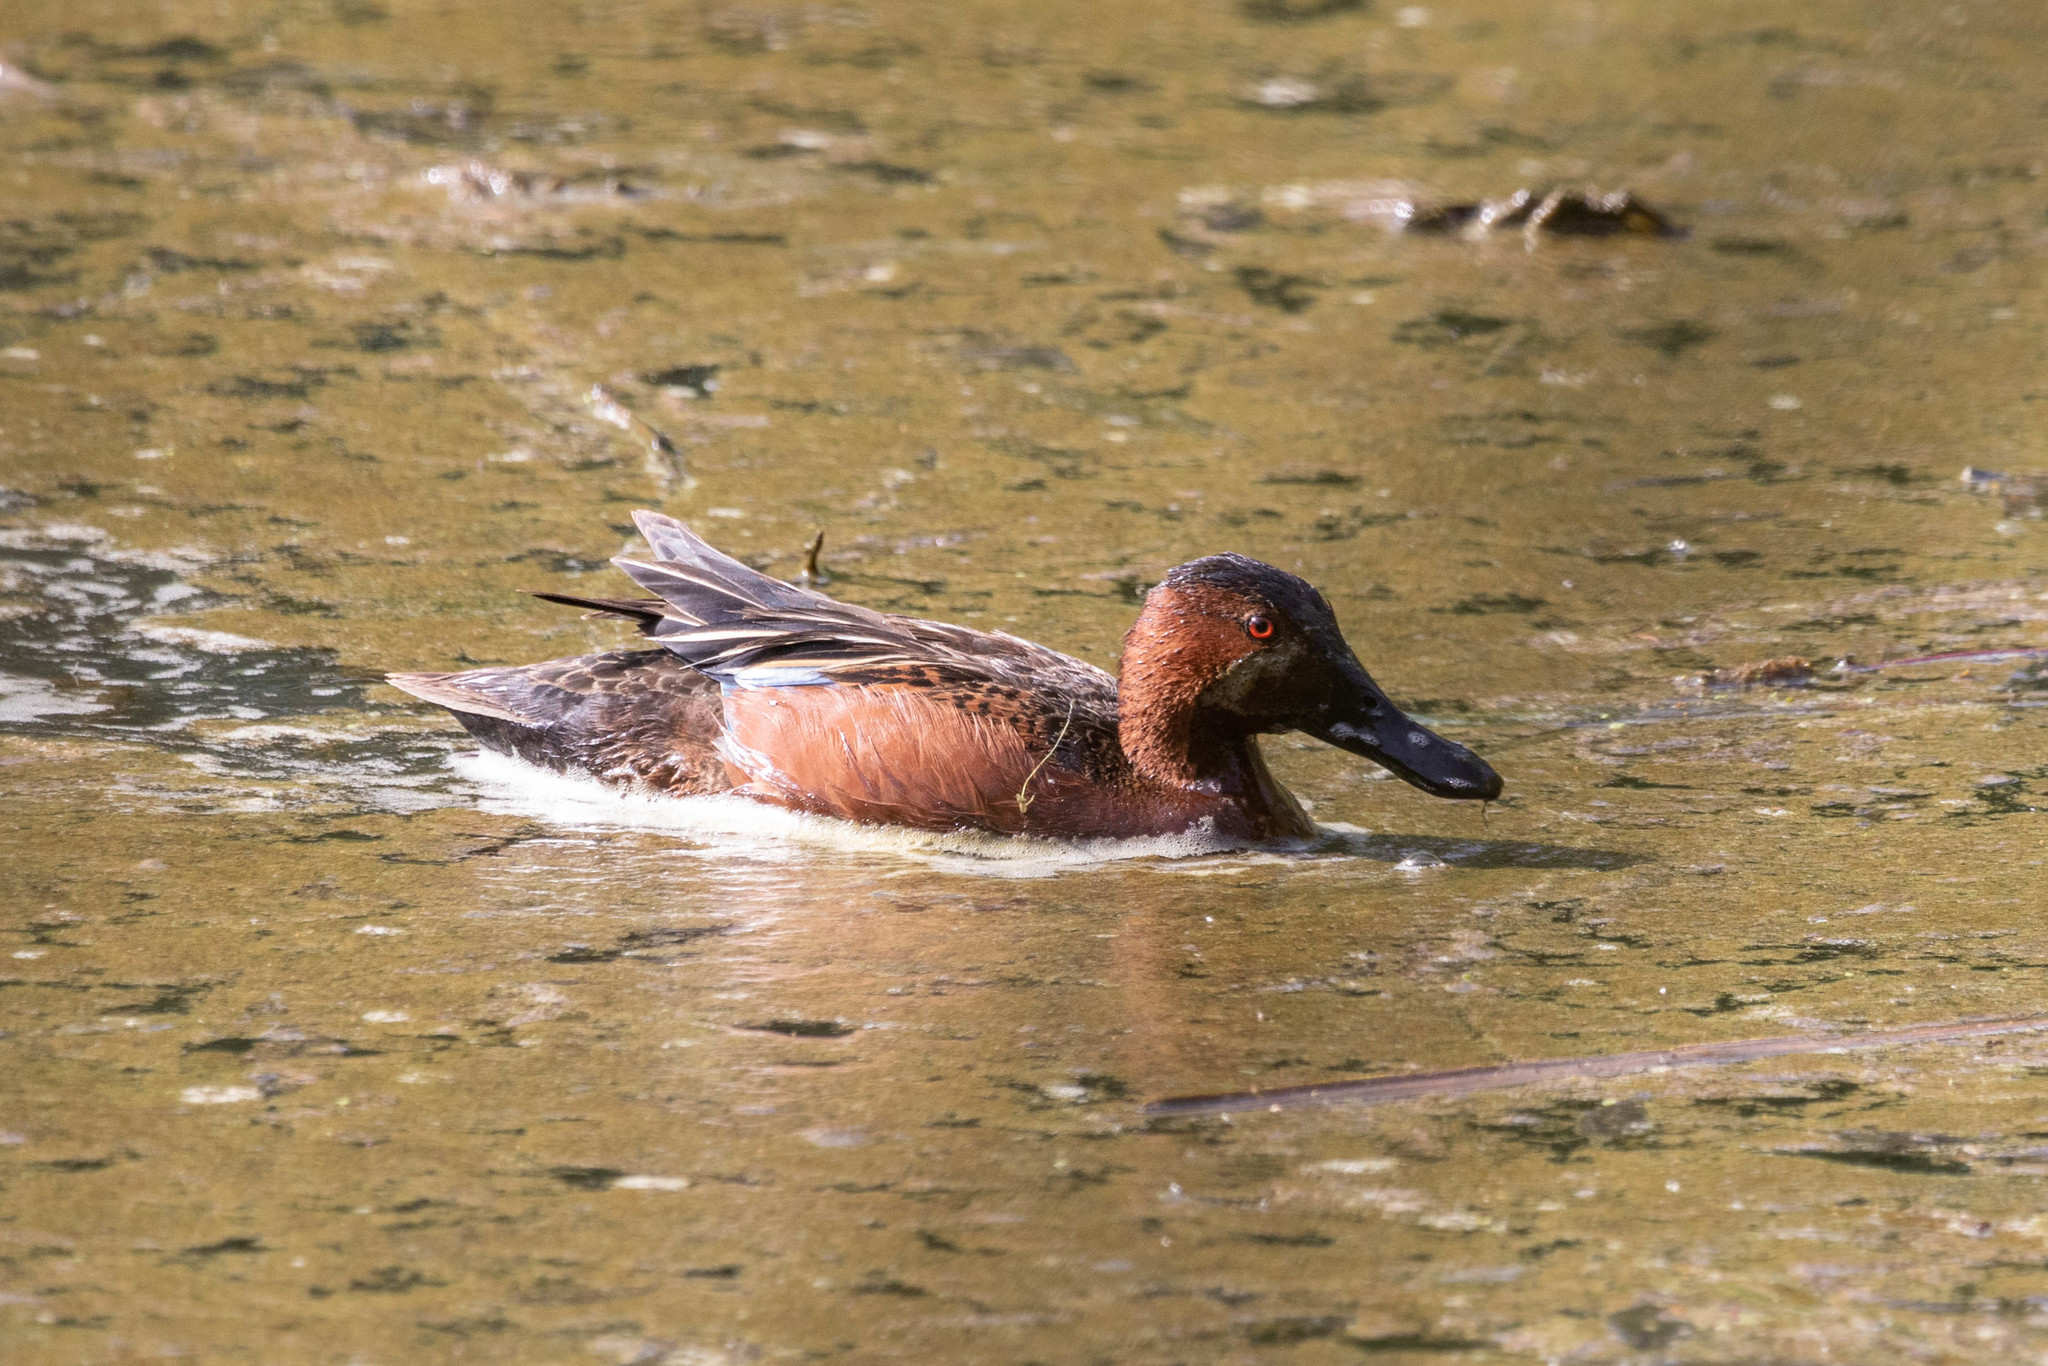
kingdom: Animalia
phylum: Chordata
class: Aves
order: Anseriformes
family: Anatidae
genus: Spatula
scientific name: Spatula cyanoptera
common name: Cinnamon teal
